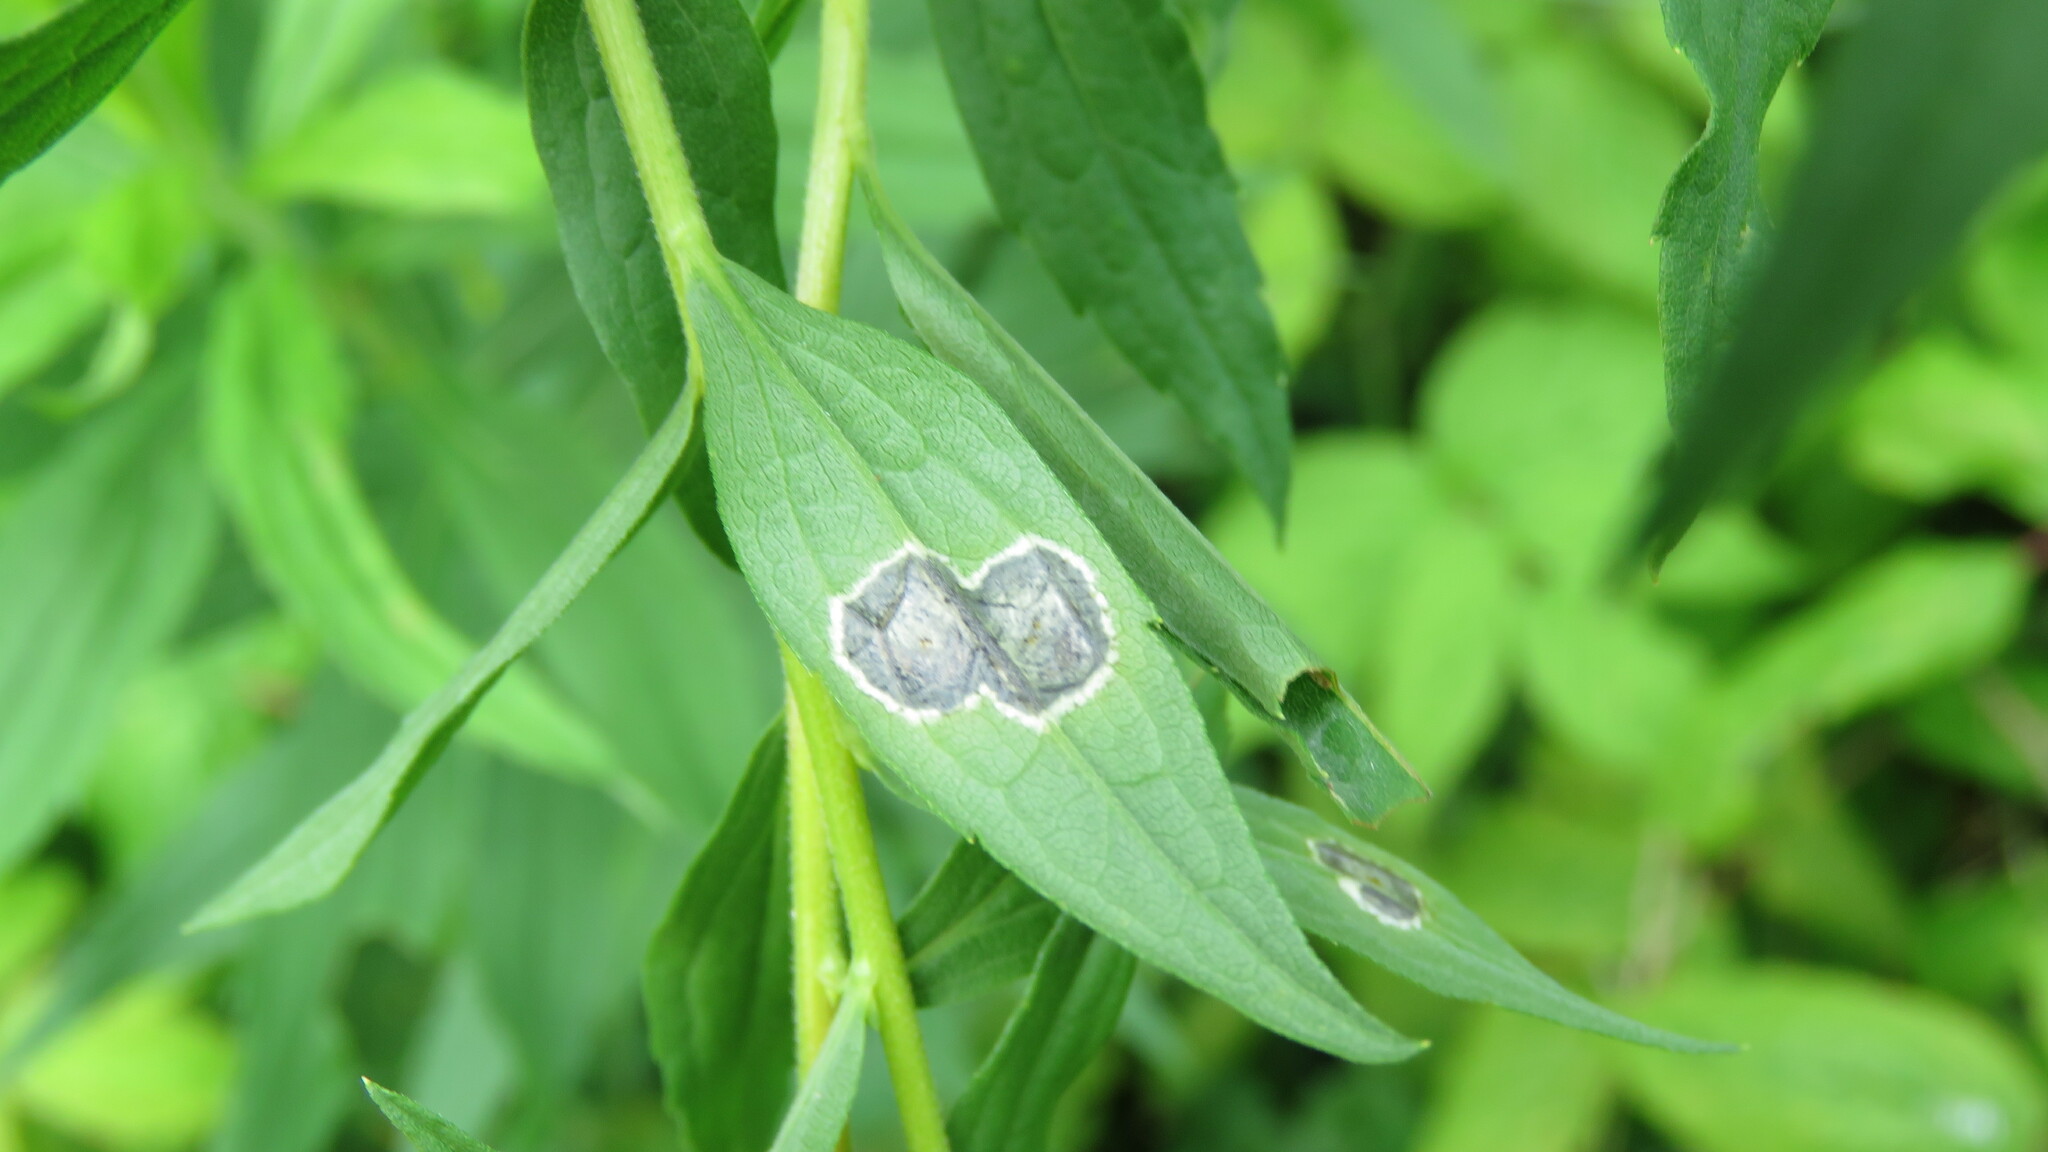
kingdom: Animalia
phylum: Arthropoda
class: Insecta
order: Diptera
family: Cecidomyiidae
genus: Asteromyia
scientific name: Asteromyia carbonifera
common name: Carbonifera goldenrod gall midge
